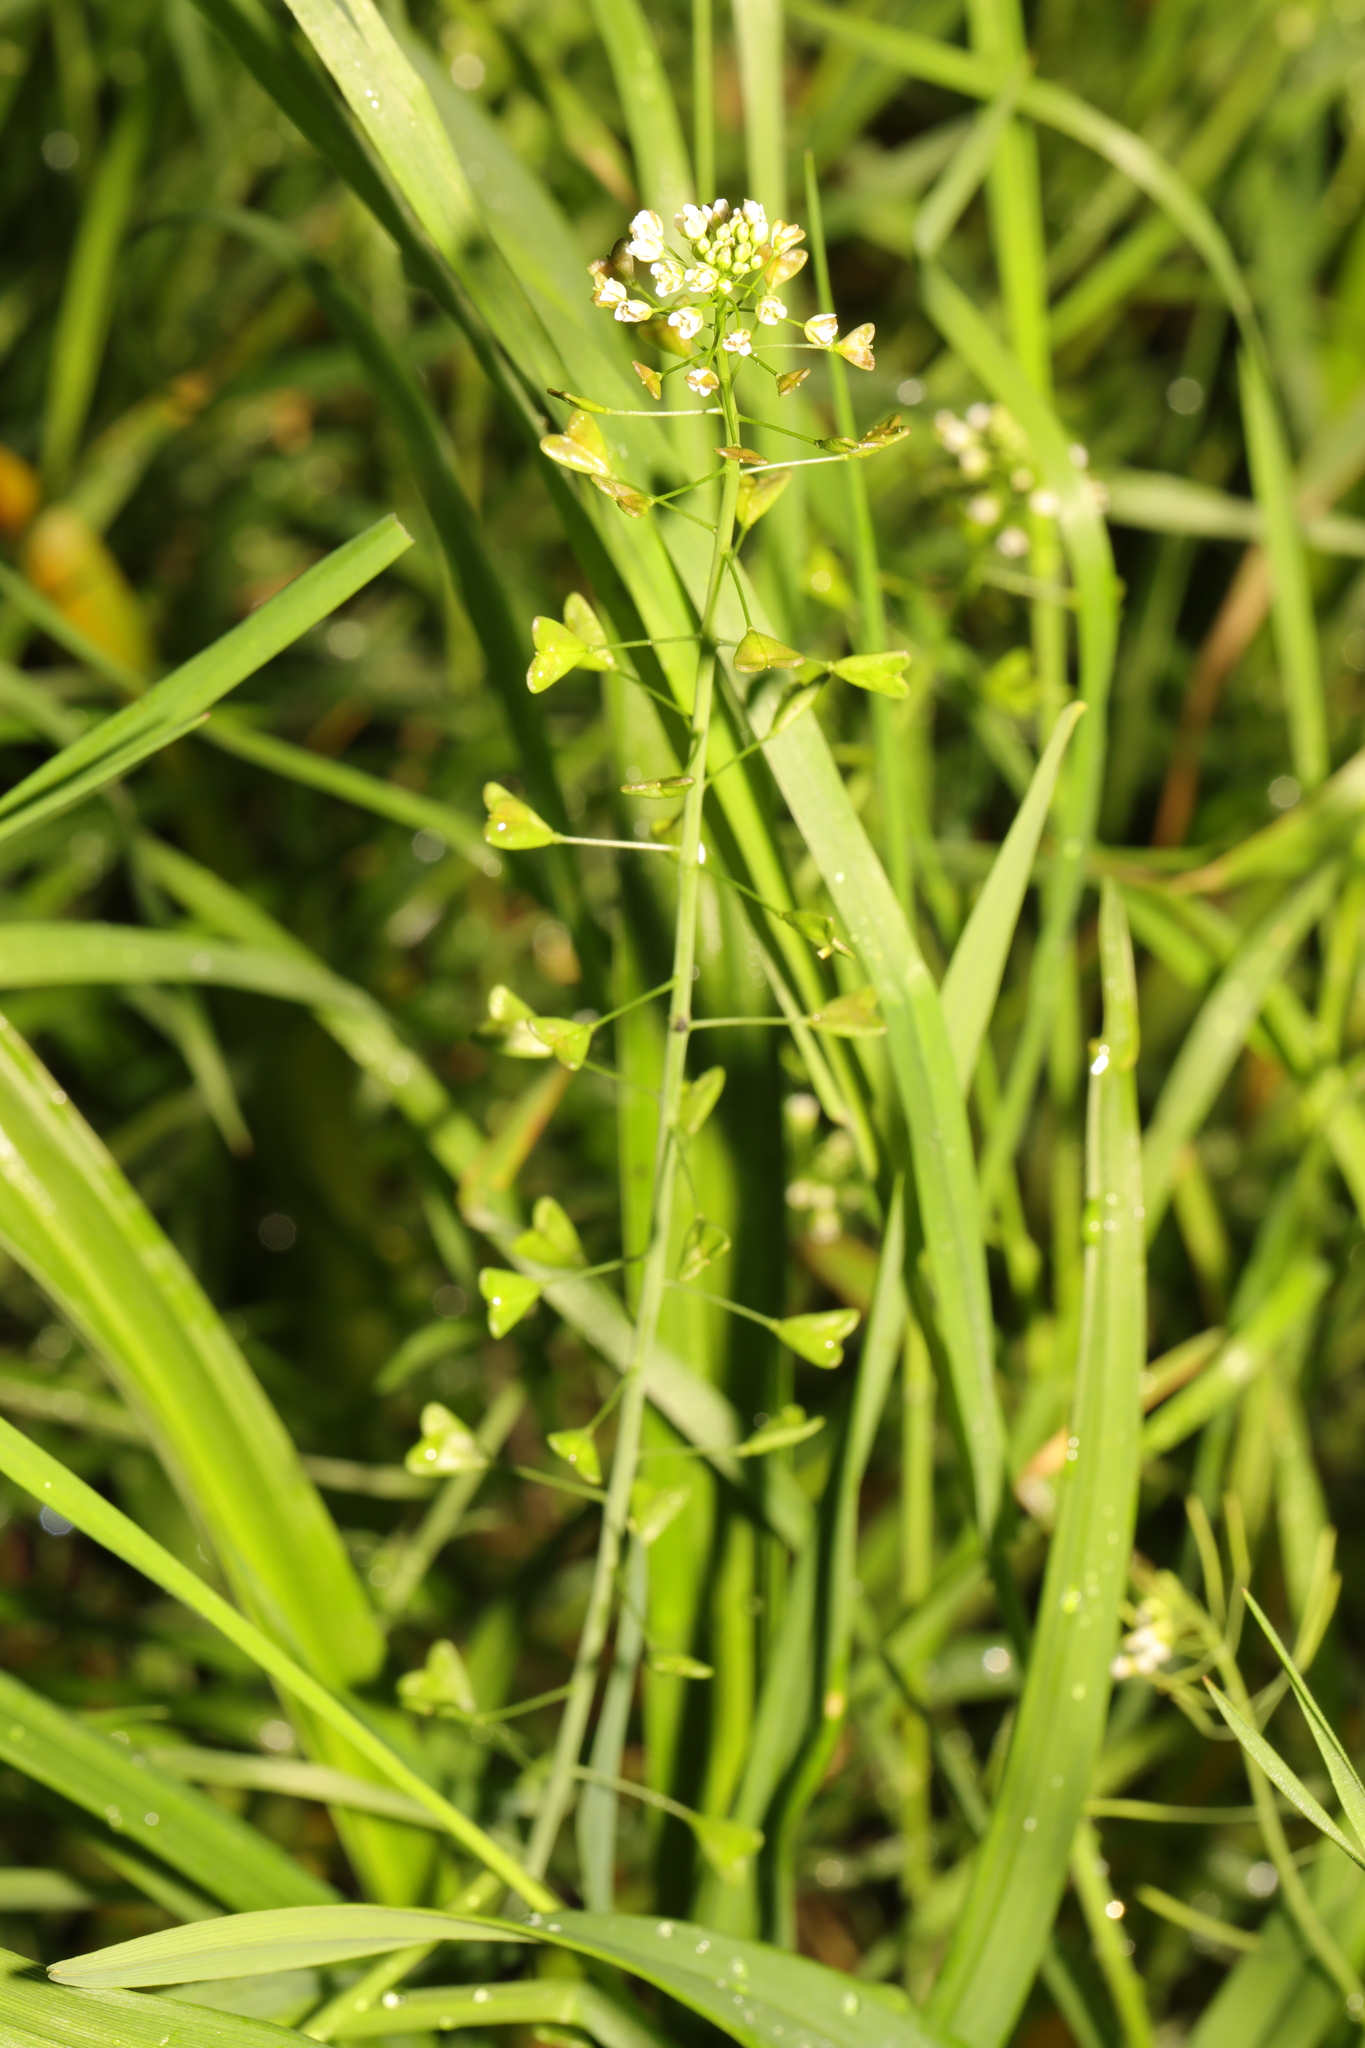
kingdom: Plantae
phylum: Tracheophyta
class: Magnoliopsida
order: Brassicales
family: Brassicaceae
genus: Capsella
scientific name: Capsella bursa-pastoris
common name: Shepherd's purse
